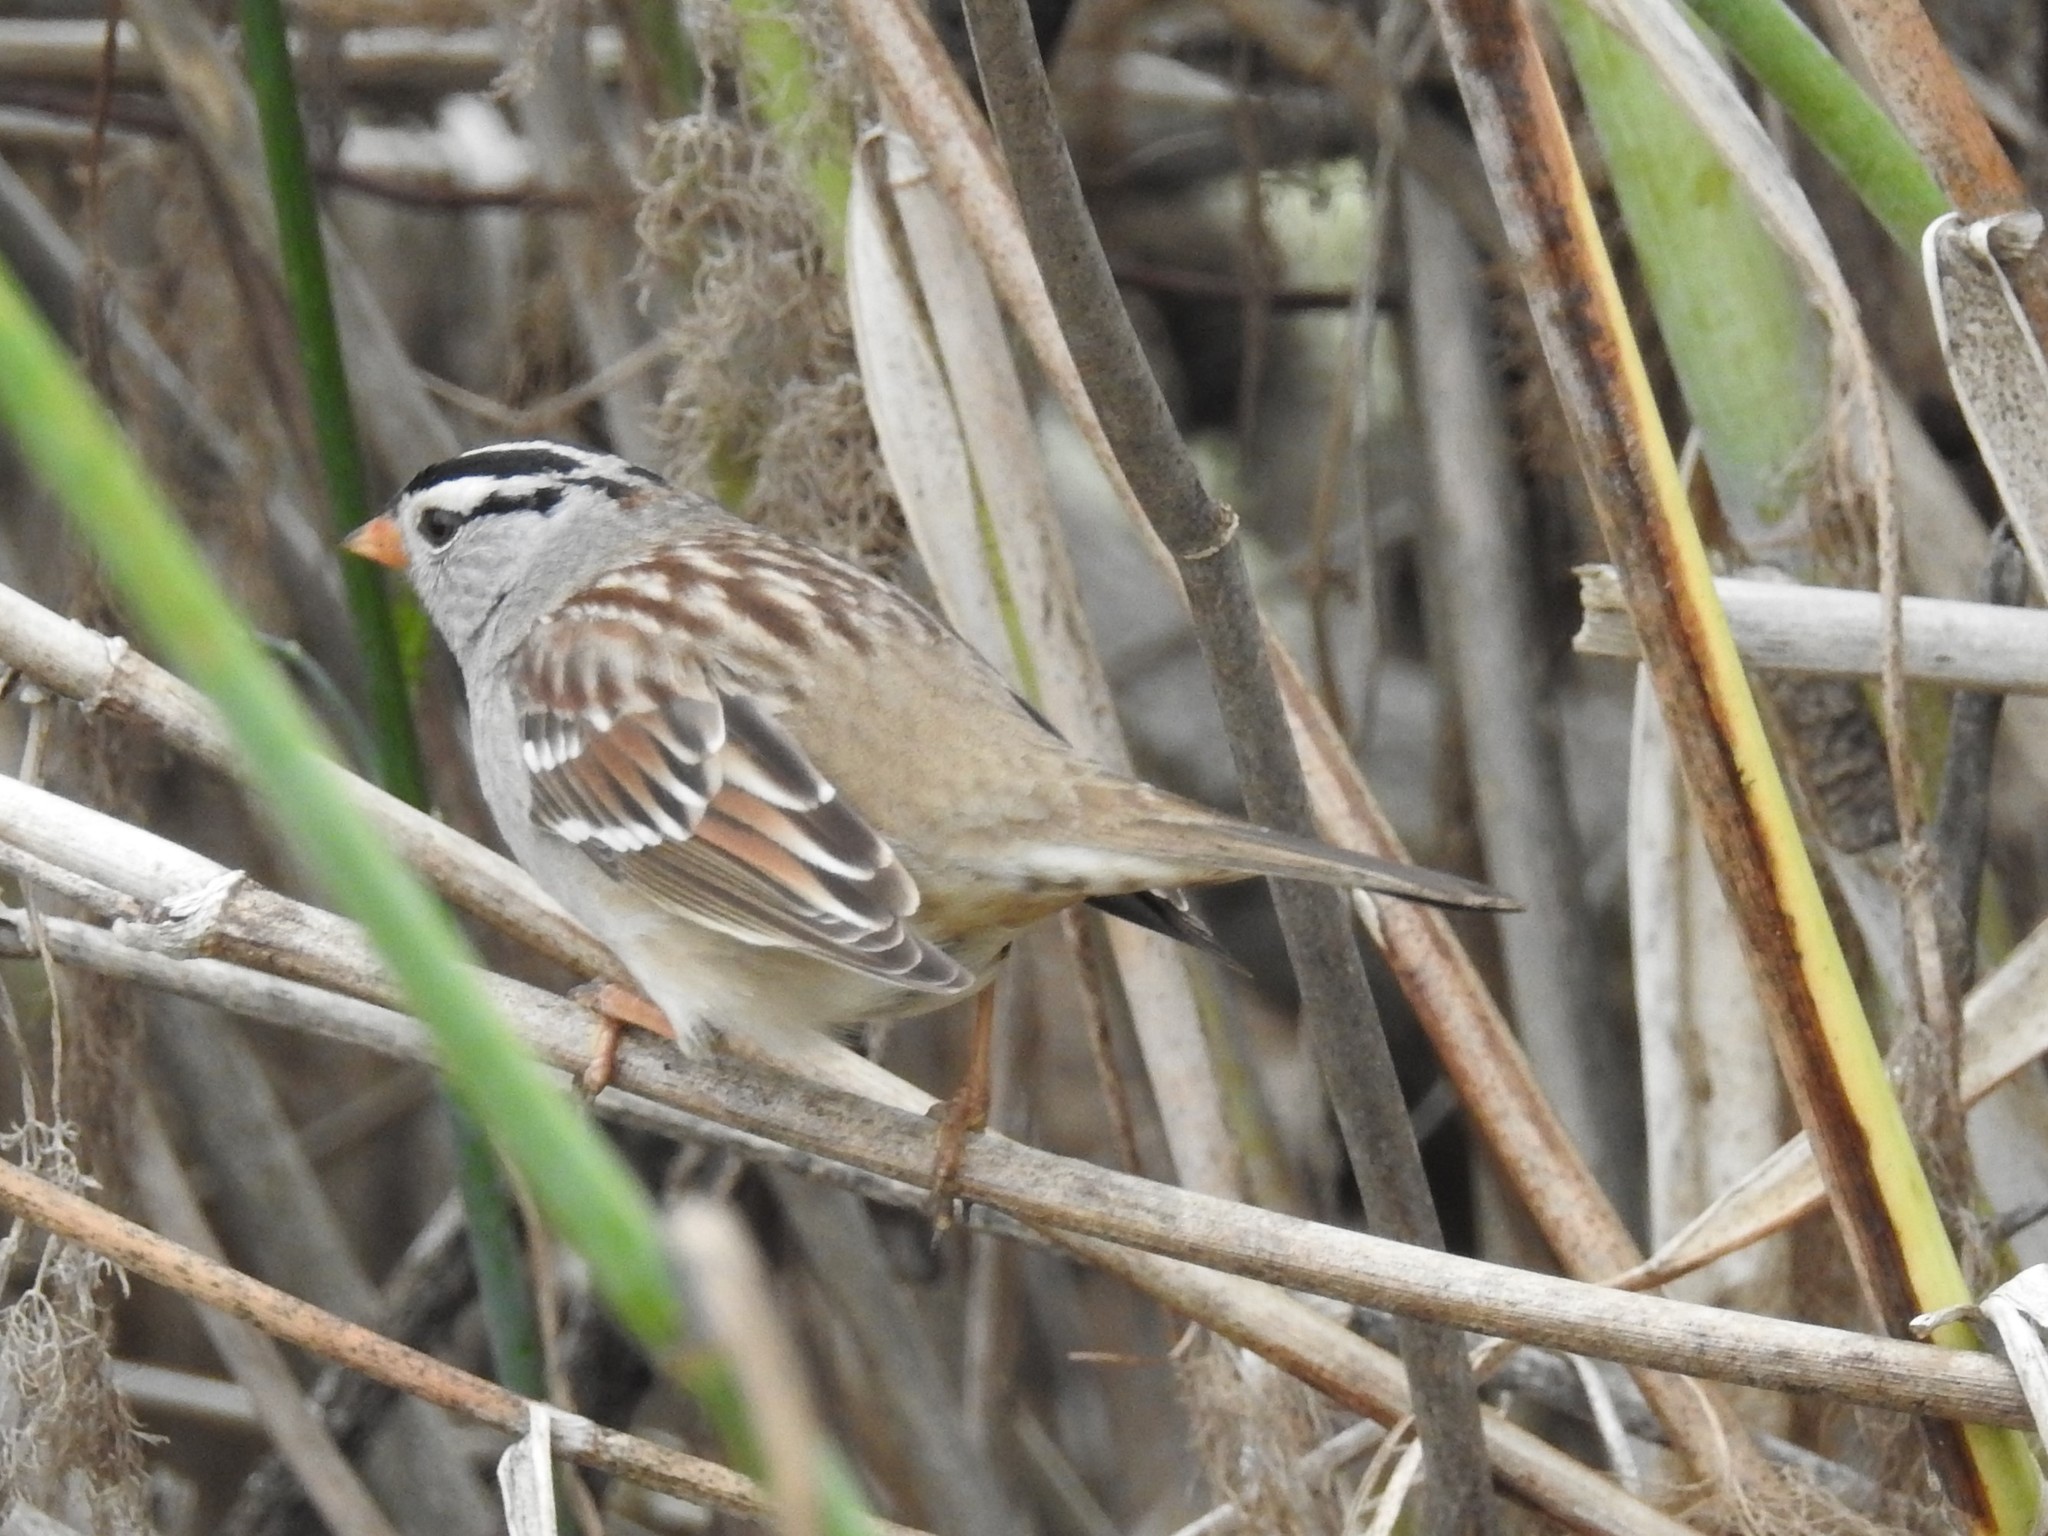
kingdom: Animalia
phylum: Chordata
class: Aves
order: Passeriformes
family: Passerellidae
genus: Zonotrichia
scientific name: Zonotrichia leucophrys
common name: White-crowned sparrow
